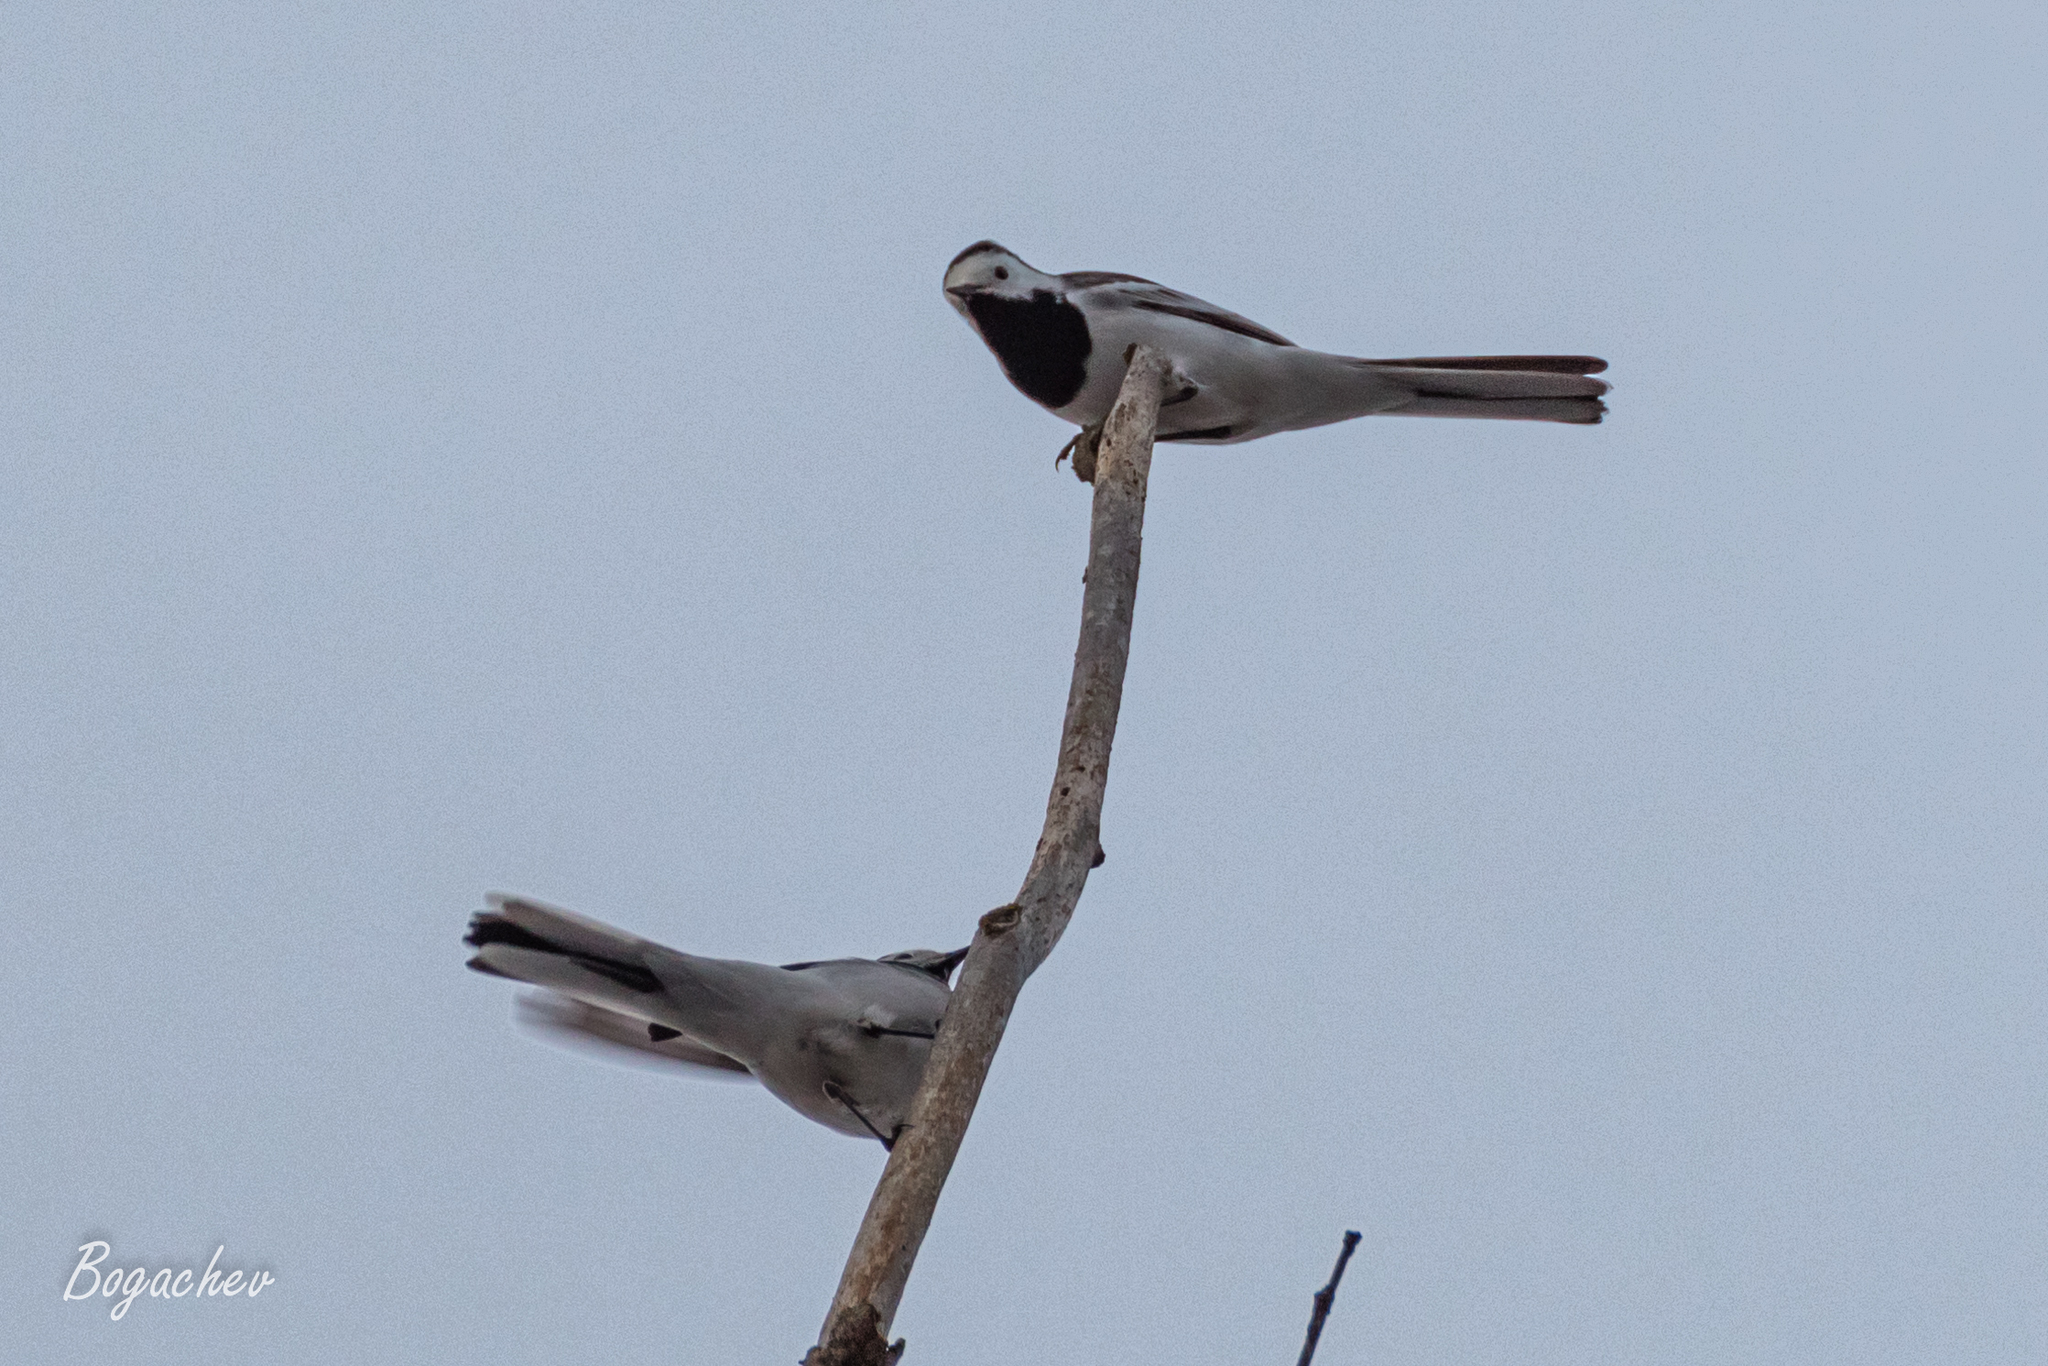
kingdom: Animalia
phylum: Chordata
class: Aves
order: Passeriformes
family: Motacillidae
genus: Motacilla
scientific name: Motacilla alba
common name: White wagtail
